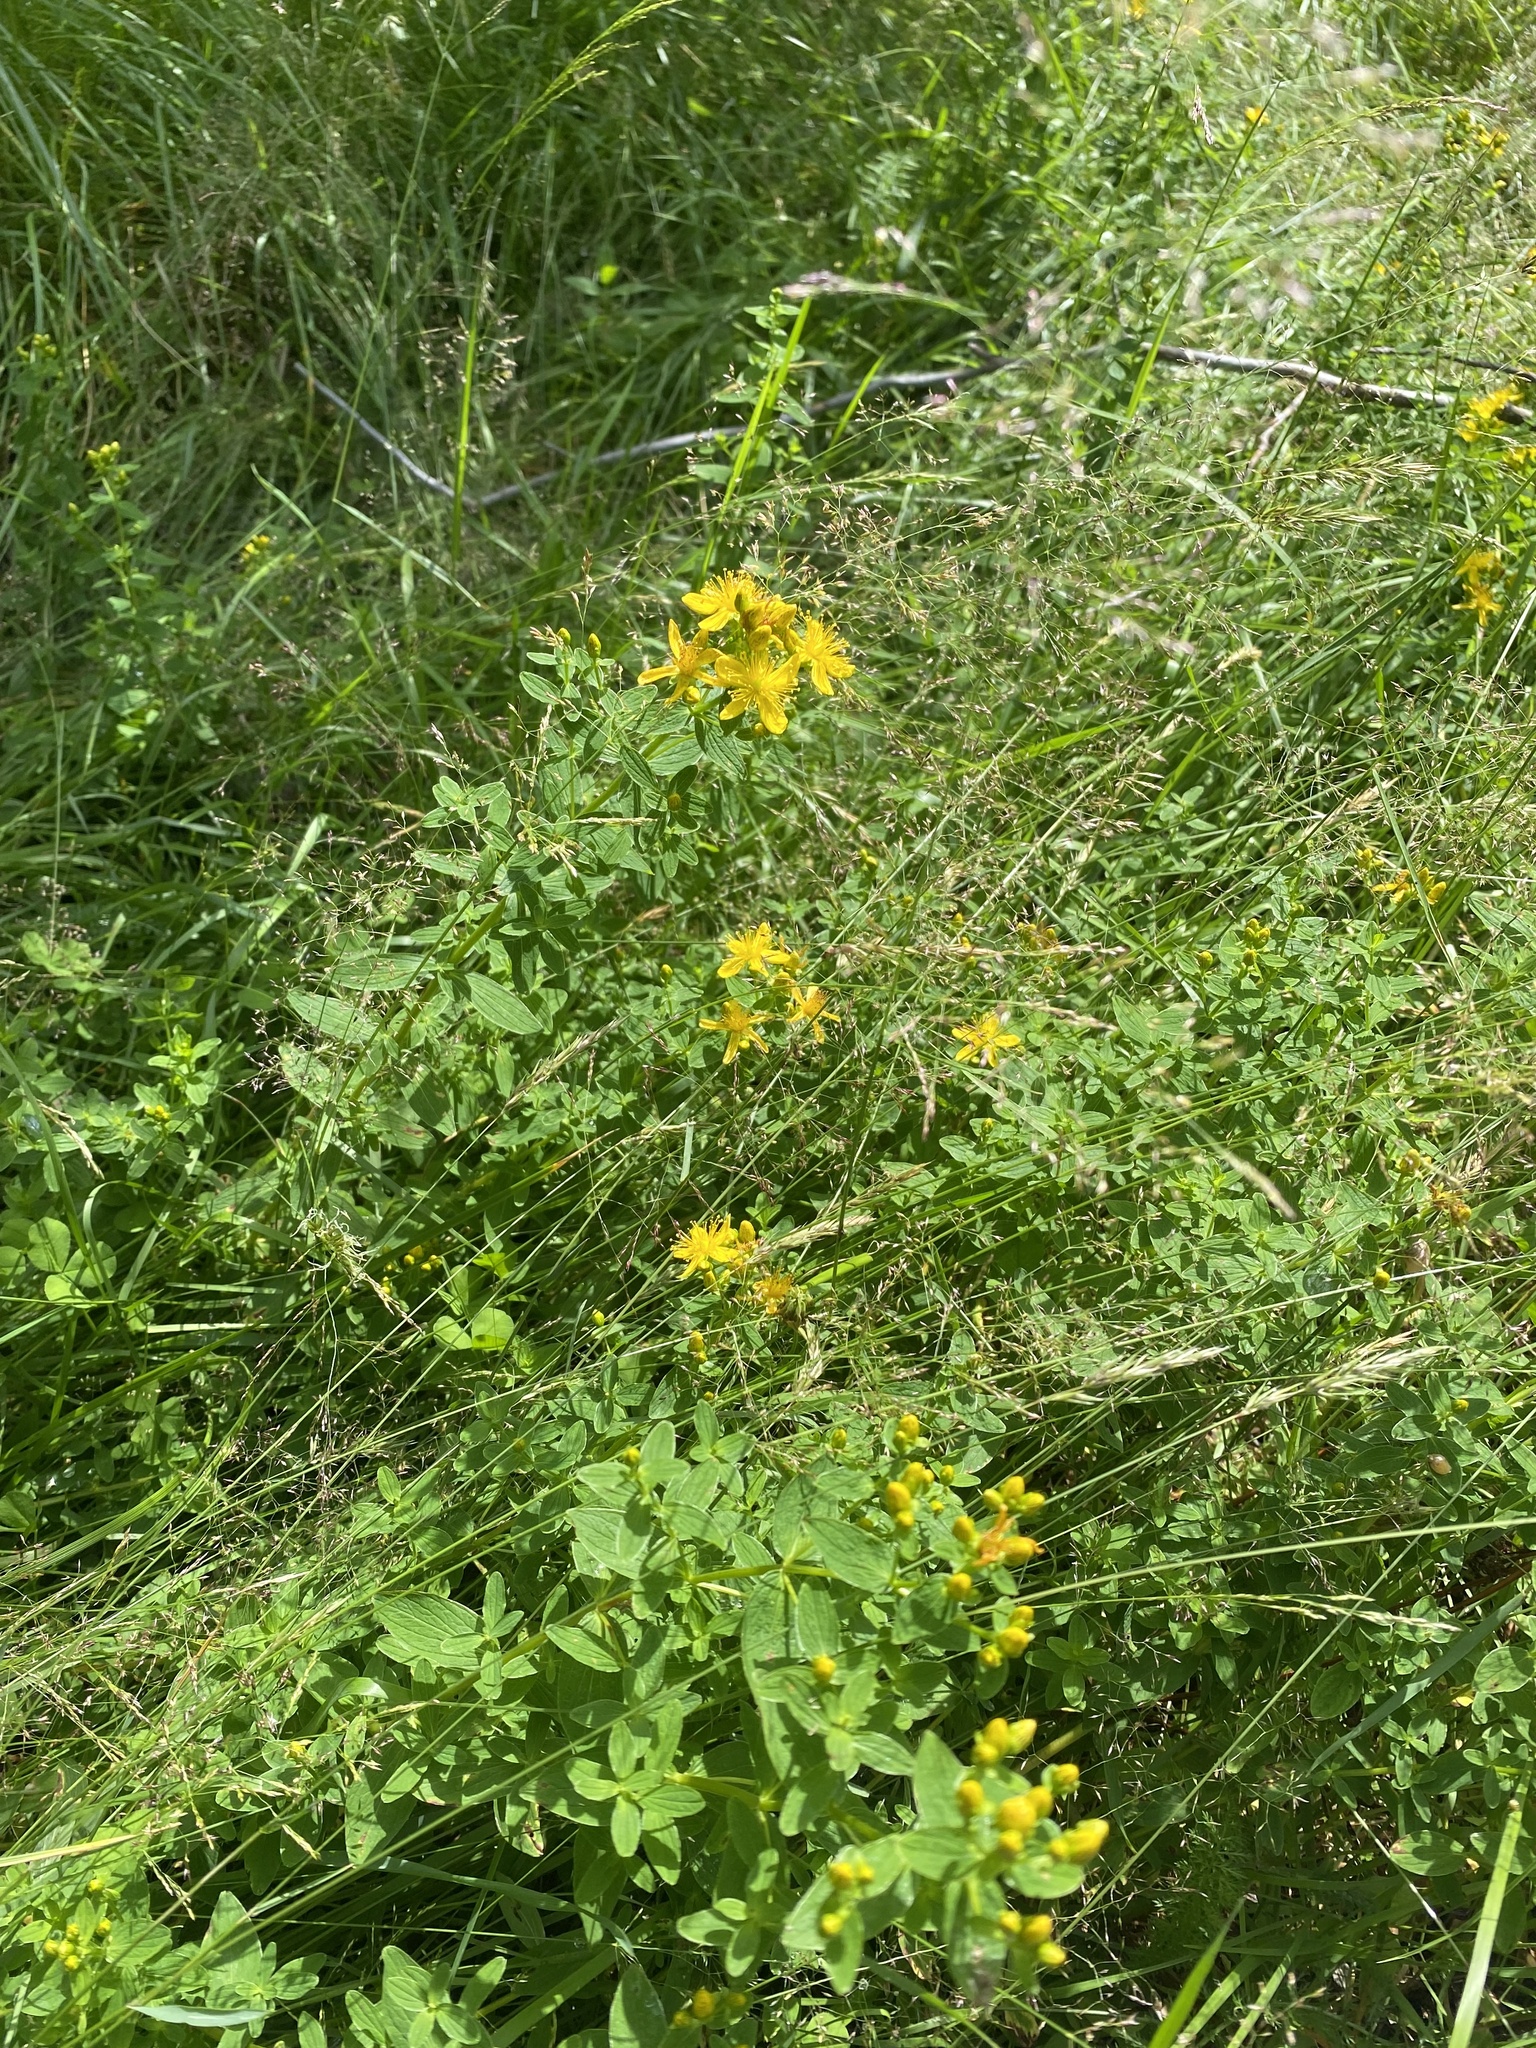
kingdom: Plantae
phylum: Tracheophyta
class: Magnoliopsida
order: Malpighiales
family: Hypericaceae
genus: Hypericum
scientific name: Hypericum maculatum
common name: Imperforate st. john's-wort
